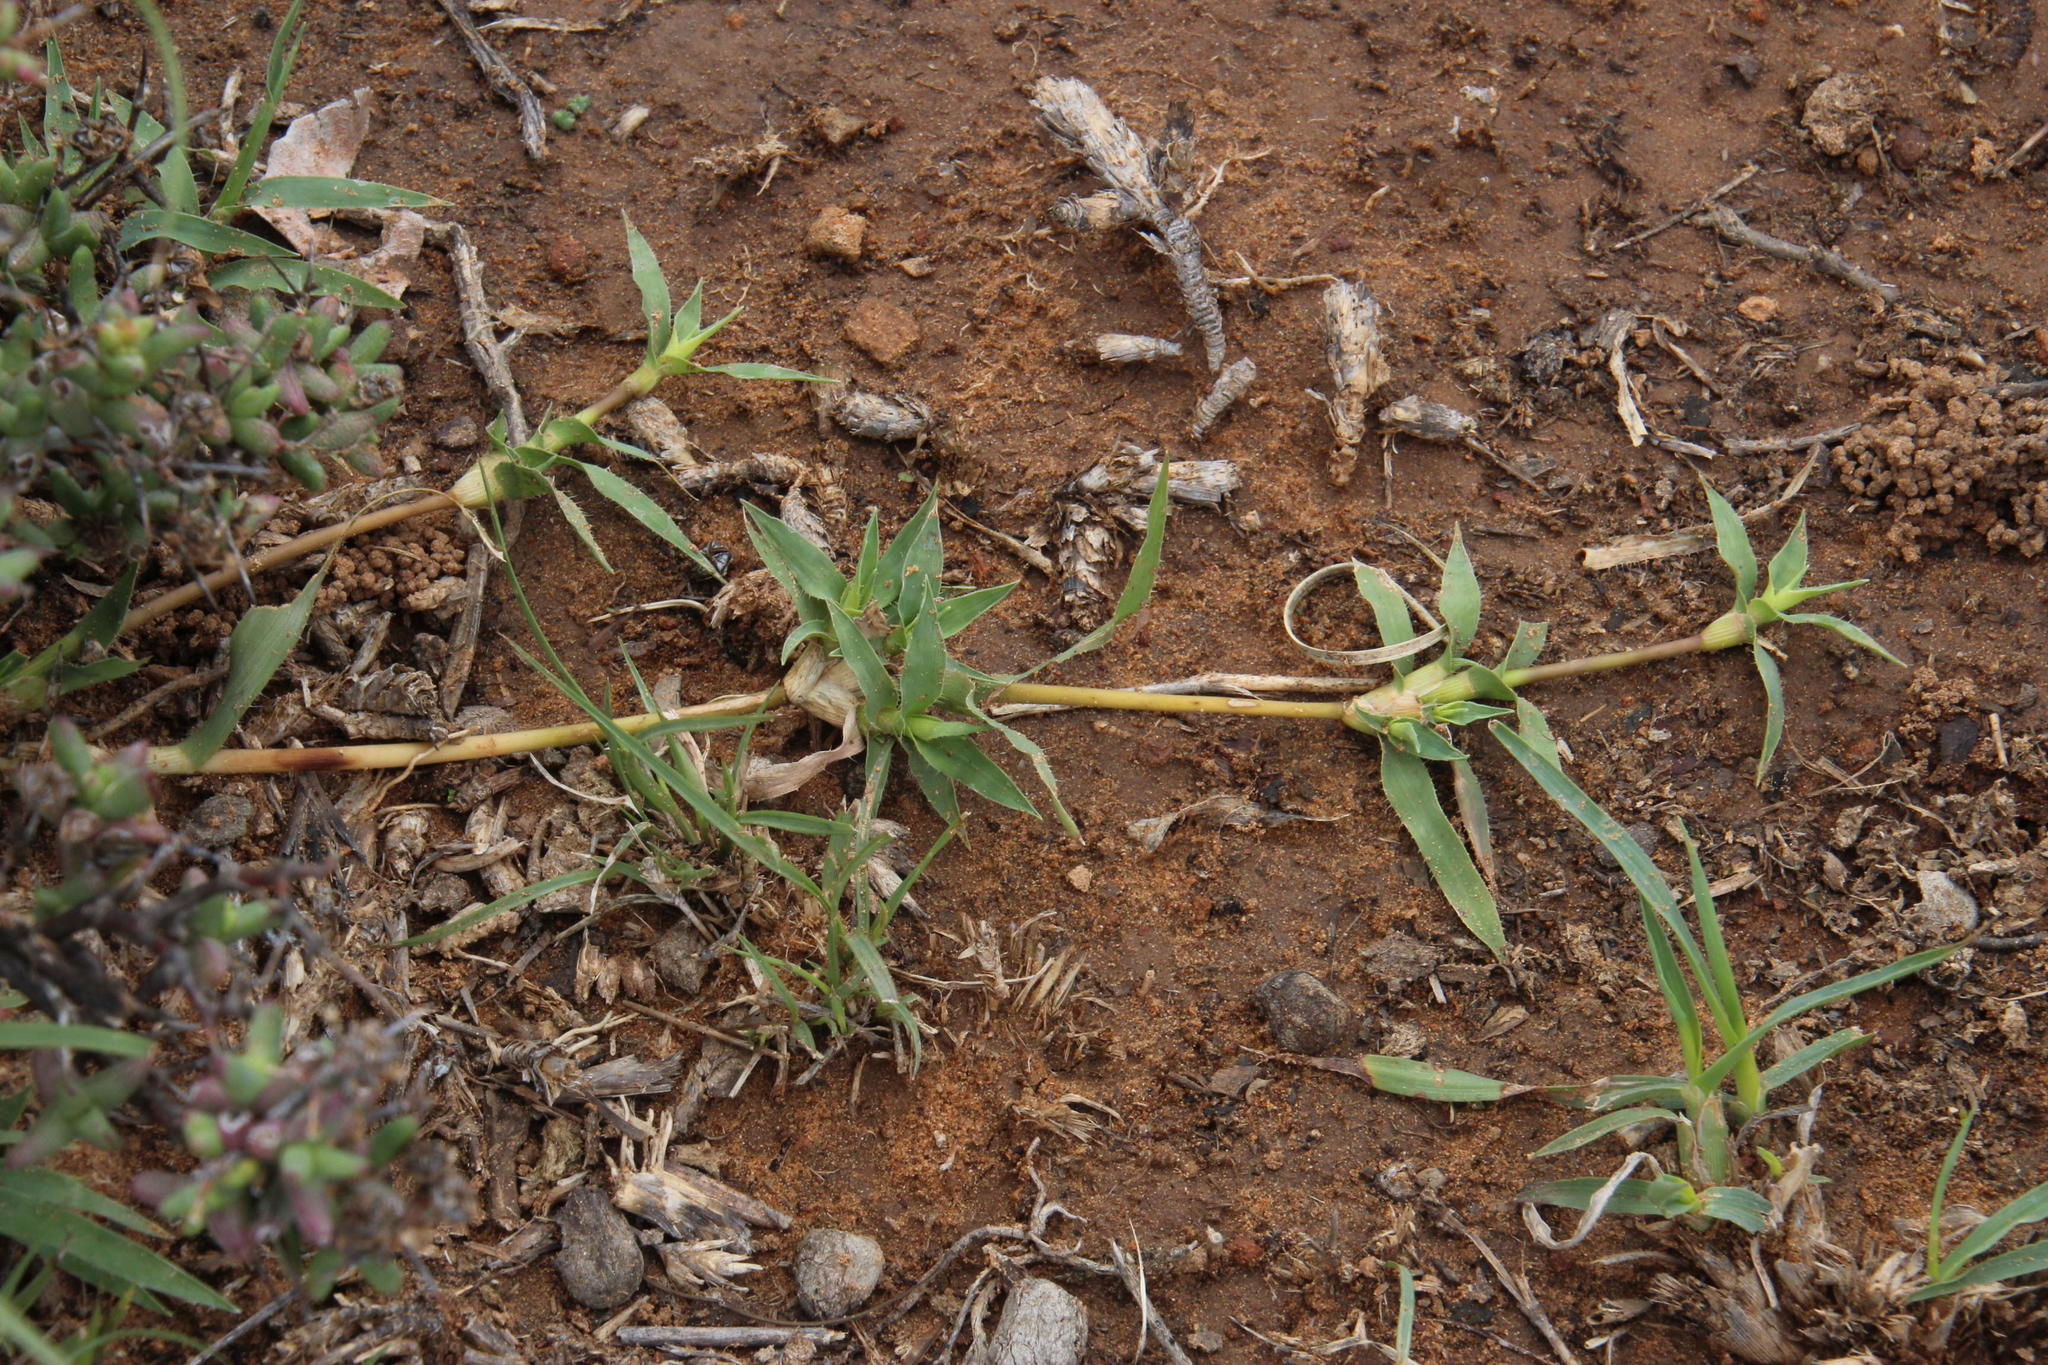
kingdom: Plantae
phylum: Tracheophyta
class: Liliopsida
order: Poales
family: Poaceae
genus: Tragus
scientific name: Tragus koelerioides
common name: Creeping carrot-seed grass
